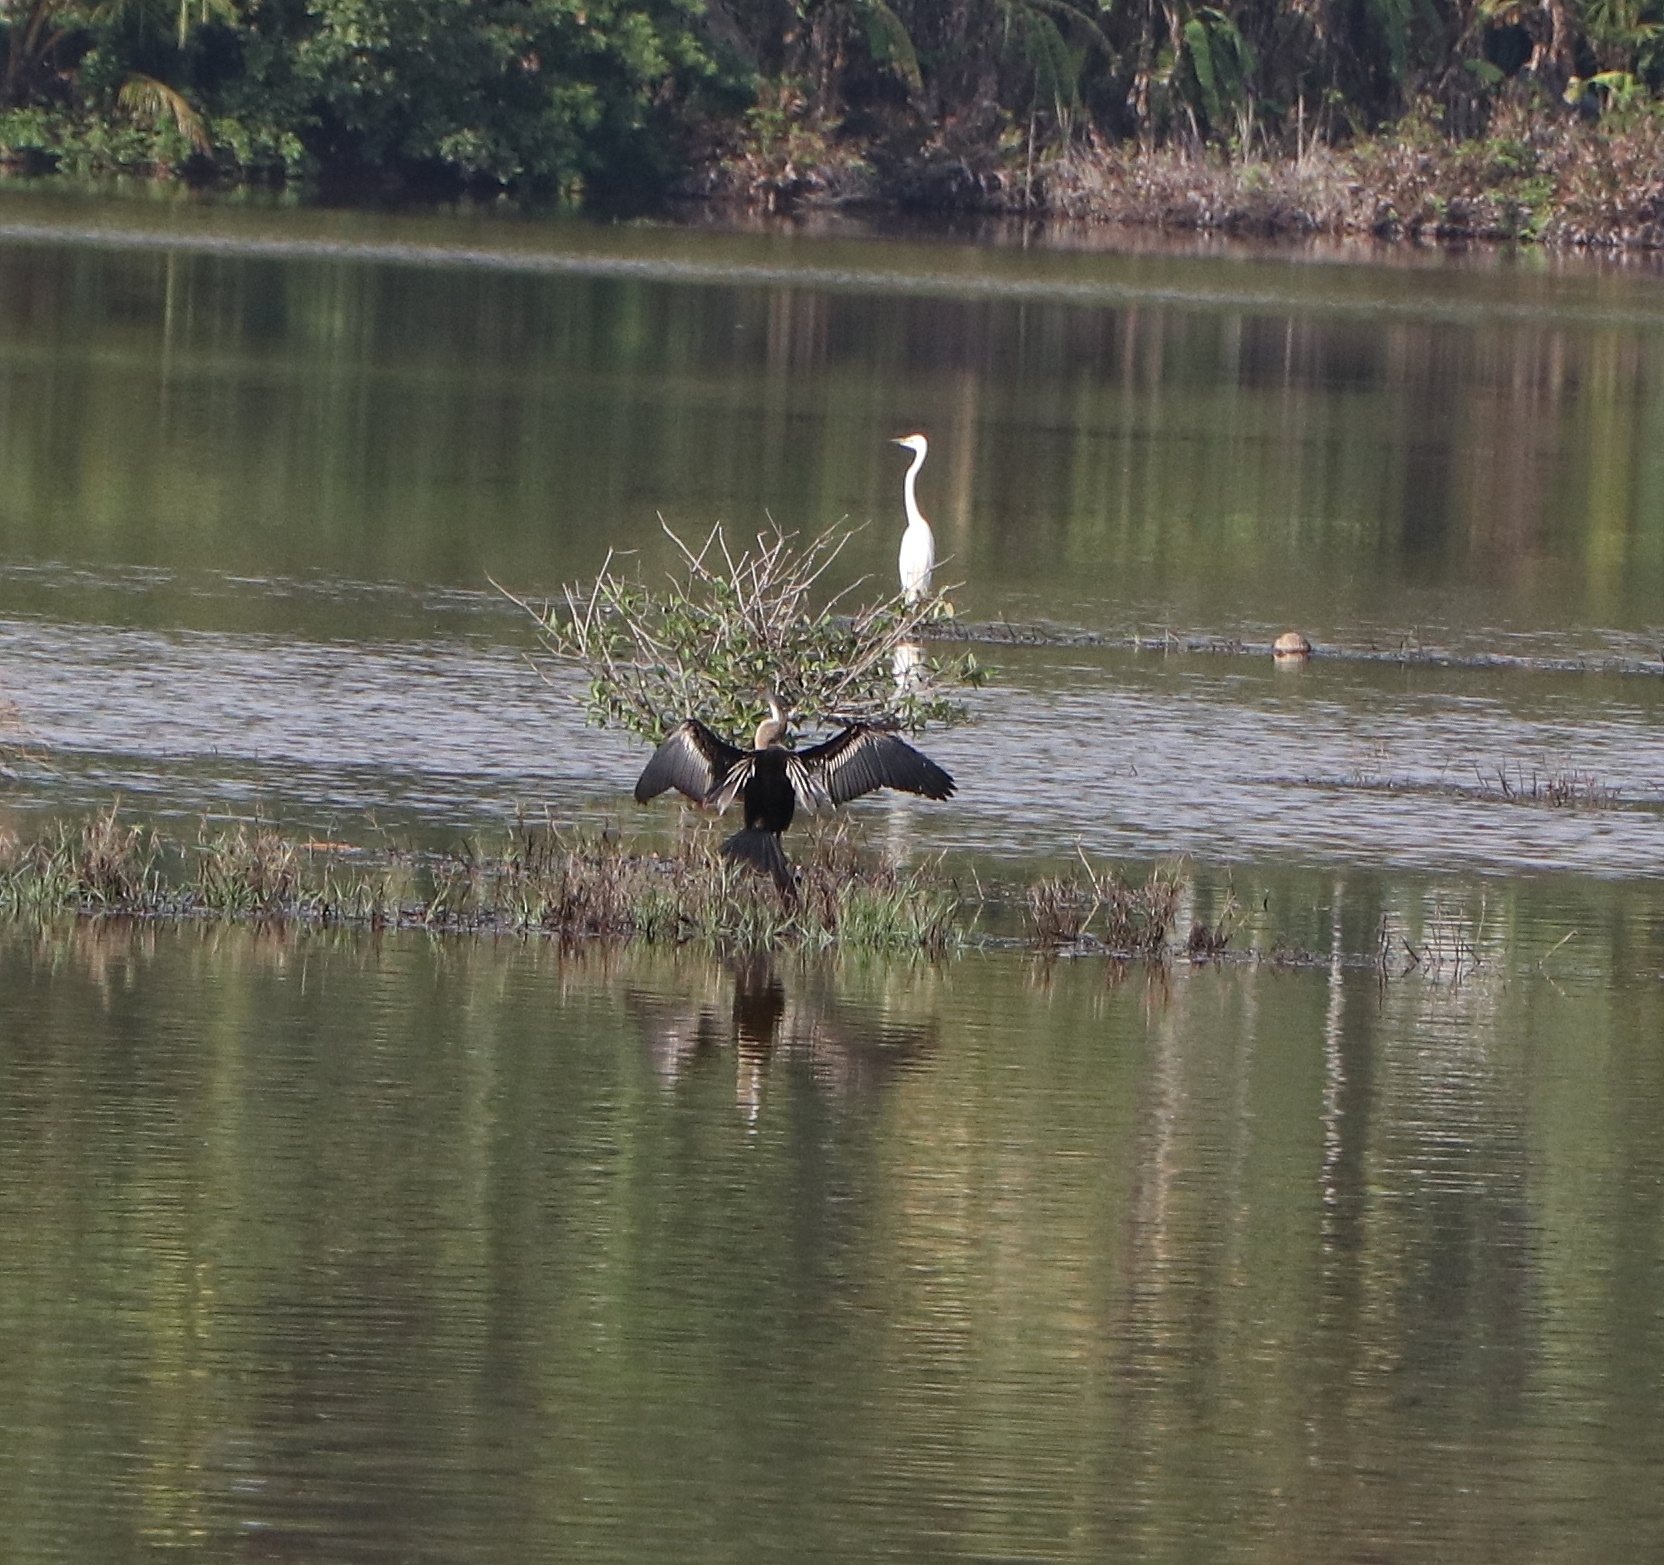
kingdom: Animalia
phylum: Chordata
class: Aves
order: Suliformes
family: Anhingidae
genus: Anhinga
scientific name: Anhinga melanogaster
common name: Oriental darter
